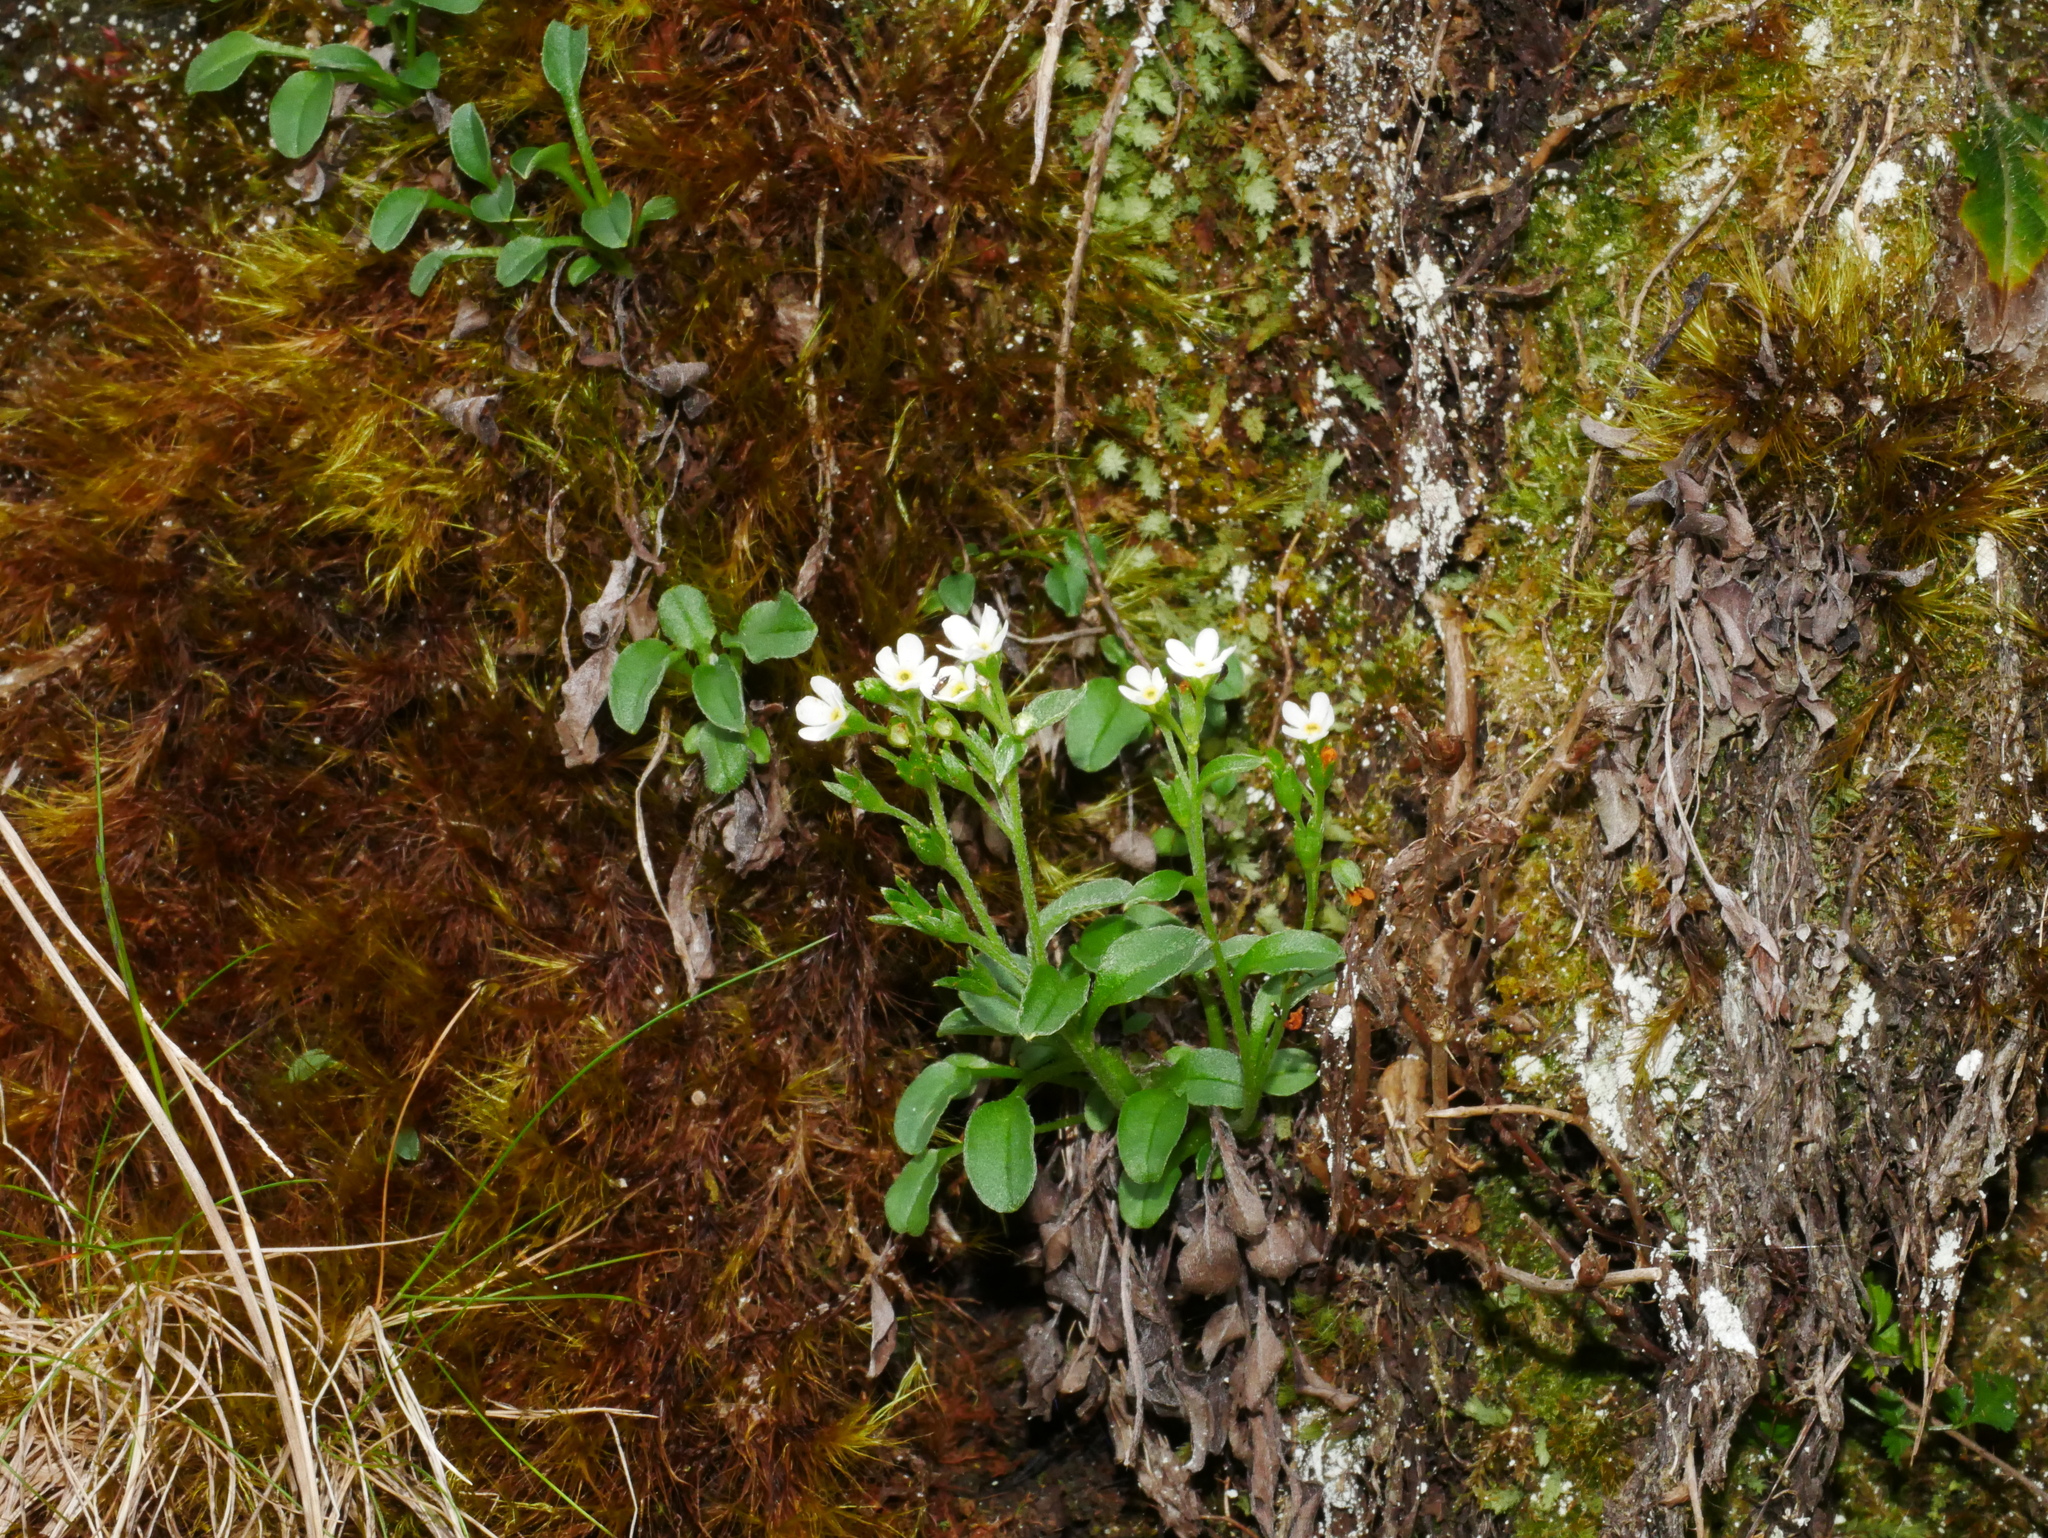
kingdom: Plantae
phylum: Tracheophyta
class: Magnoliopsida
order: Boraginales
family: Boraginaceae
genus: Trigonotis
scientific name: Trigonotis nankotaizanensis
